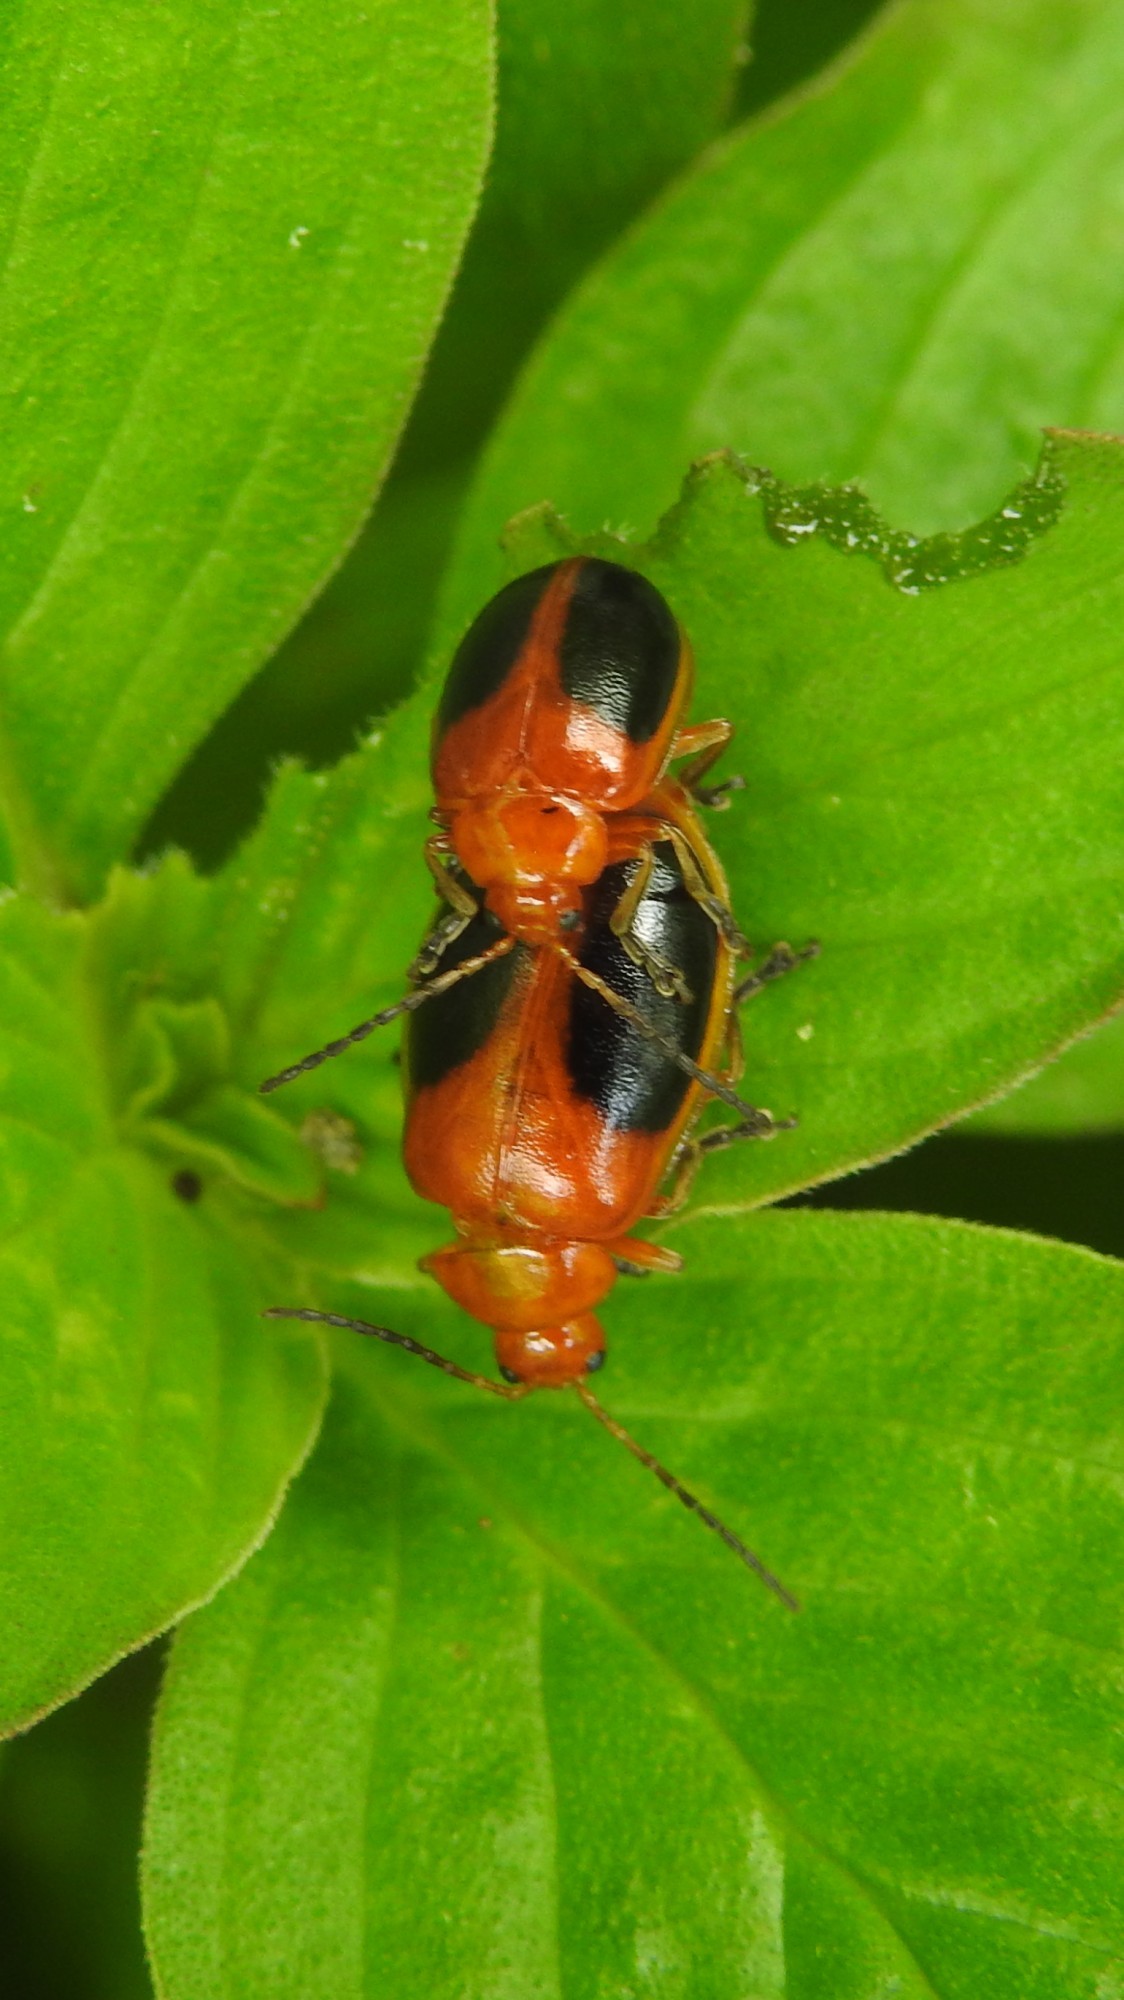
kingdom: Animalia
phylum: Arthropoda
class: Insecta
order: Coleoptera
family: Chrysomelidae
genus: Oides
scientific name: Oides affinis
